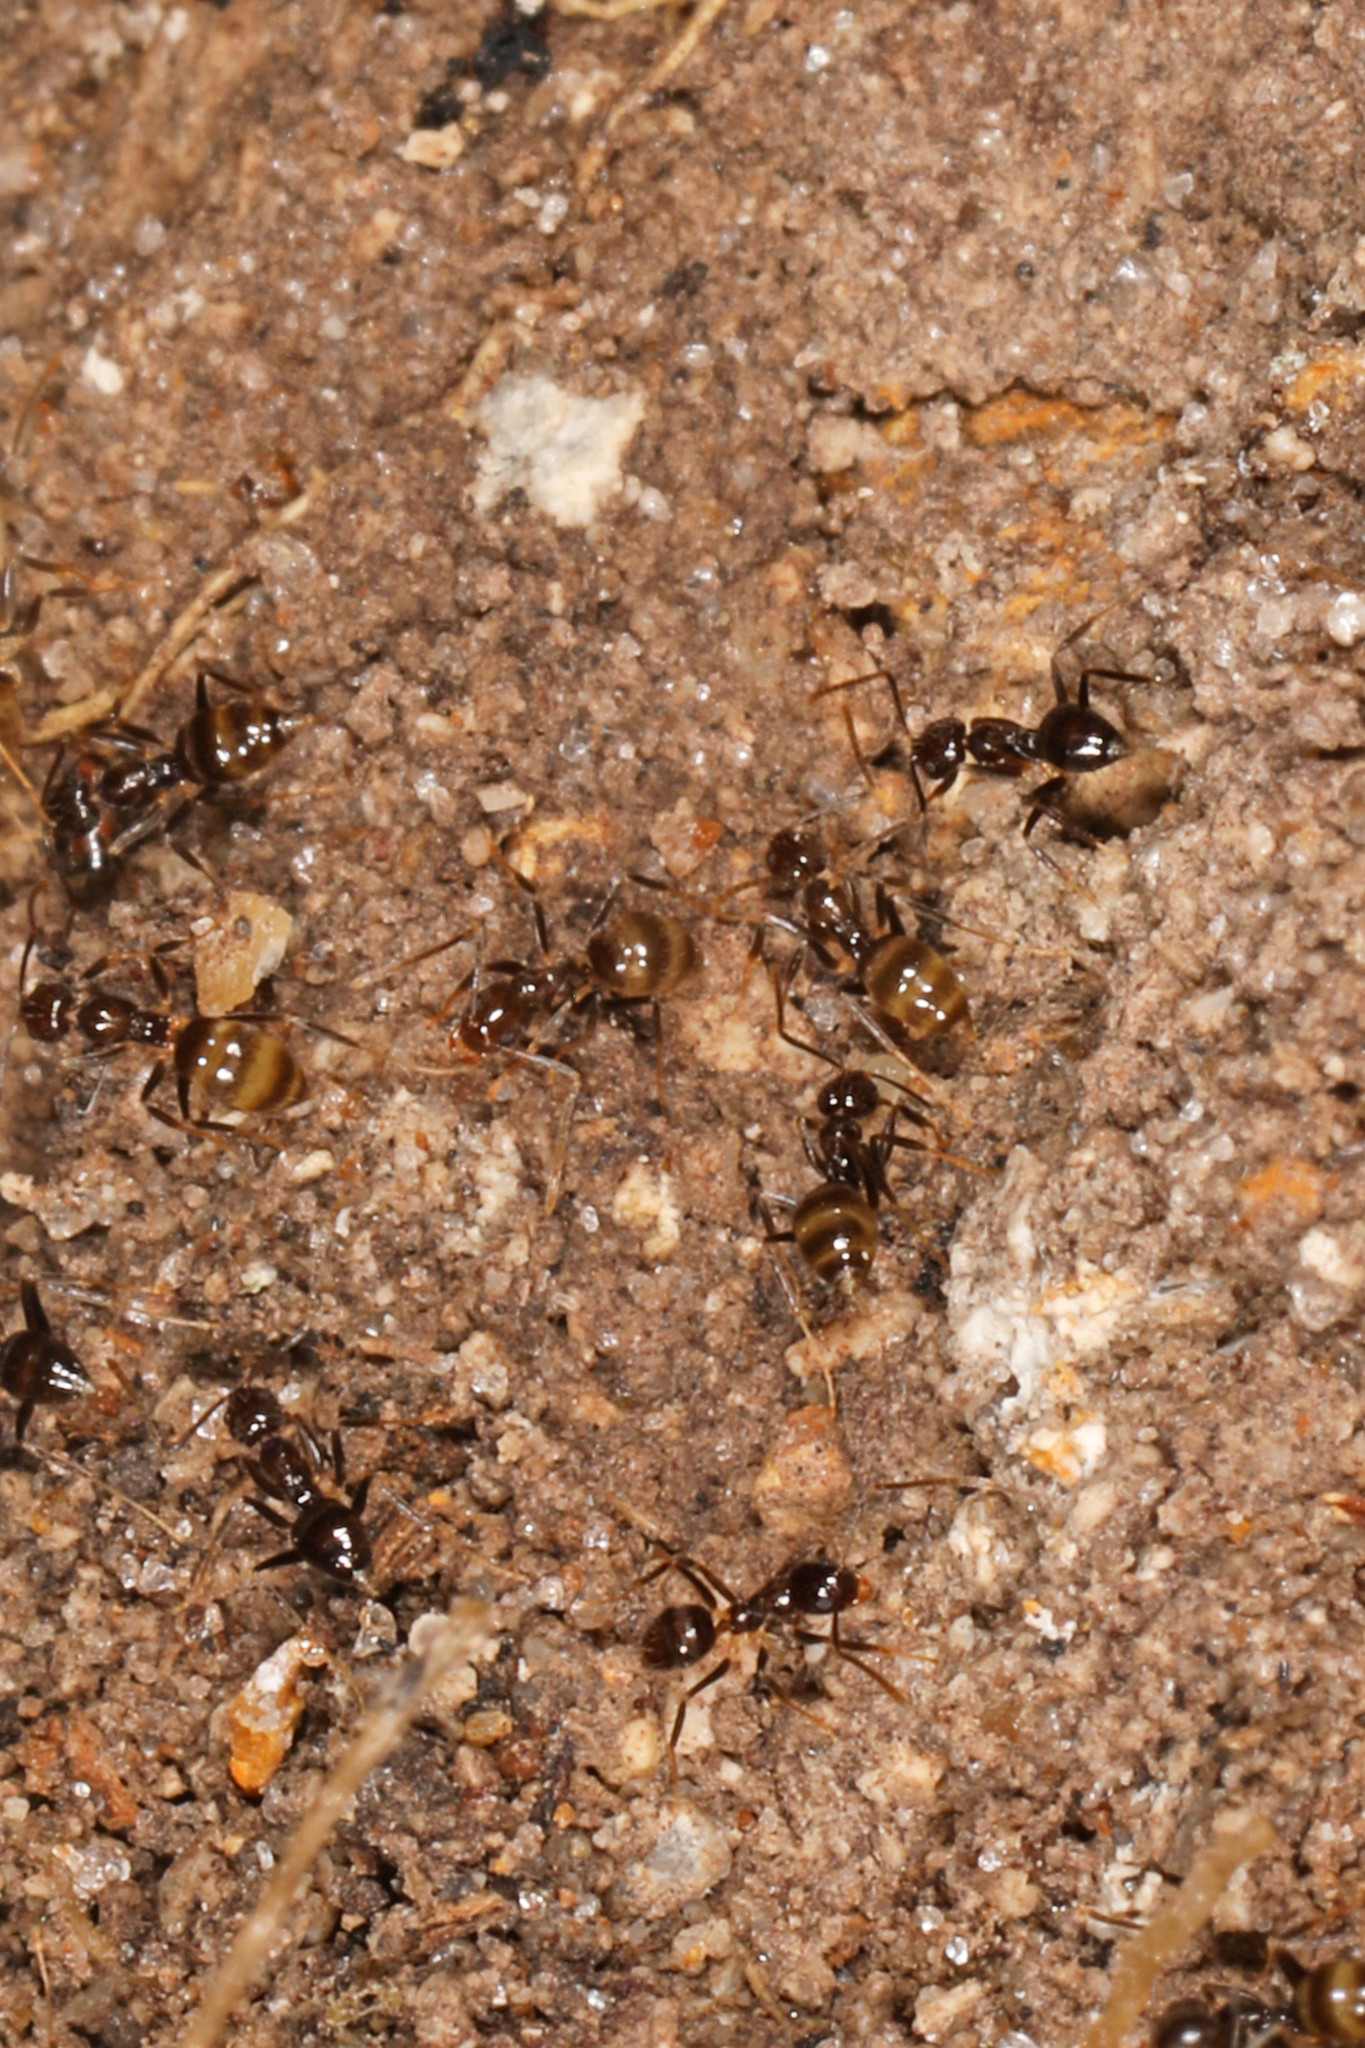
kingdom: Animalia
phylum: Arthropoda
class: Insecta
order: Hymenoptera
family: Formicidae
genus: Nylanderia
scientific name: Nylanderia steinheili
